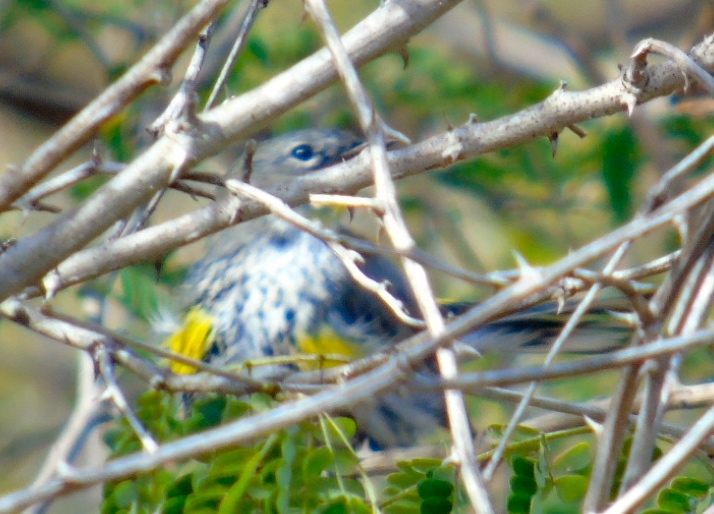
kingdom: Animalia
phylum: Chordata
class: Aves
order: Passeriformes
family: Parulidae
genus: Setophaga
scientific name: Setophaga coronata
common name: Myrtle warbler
